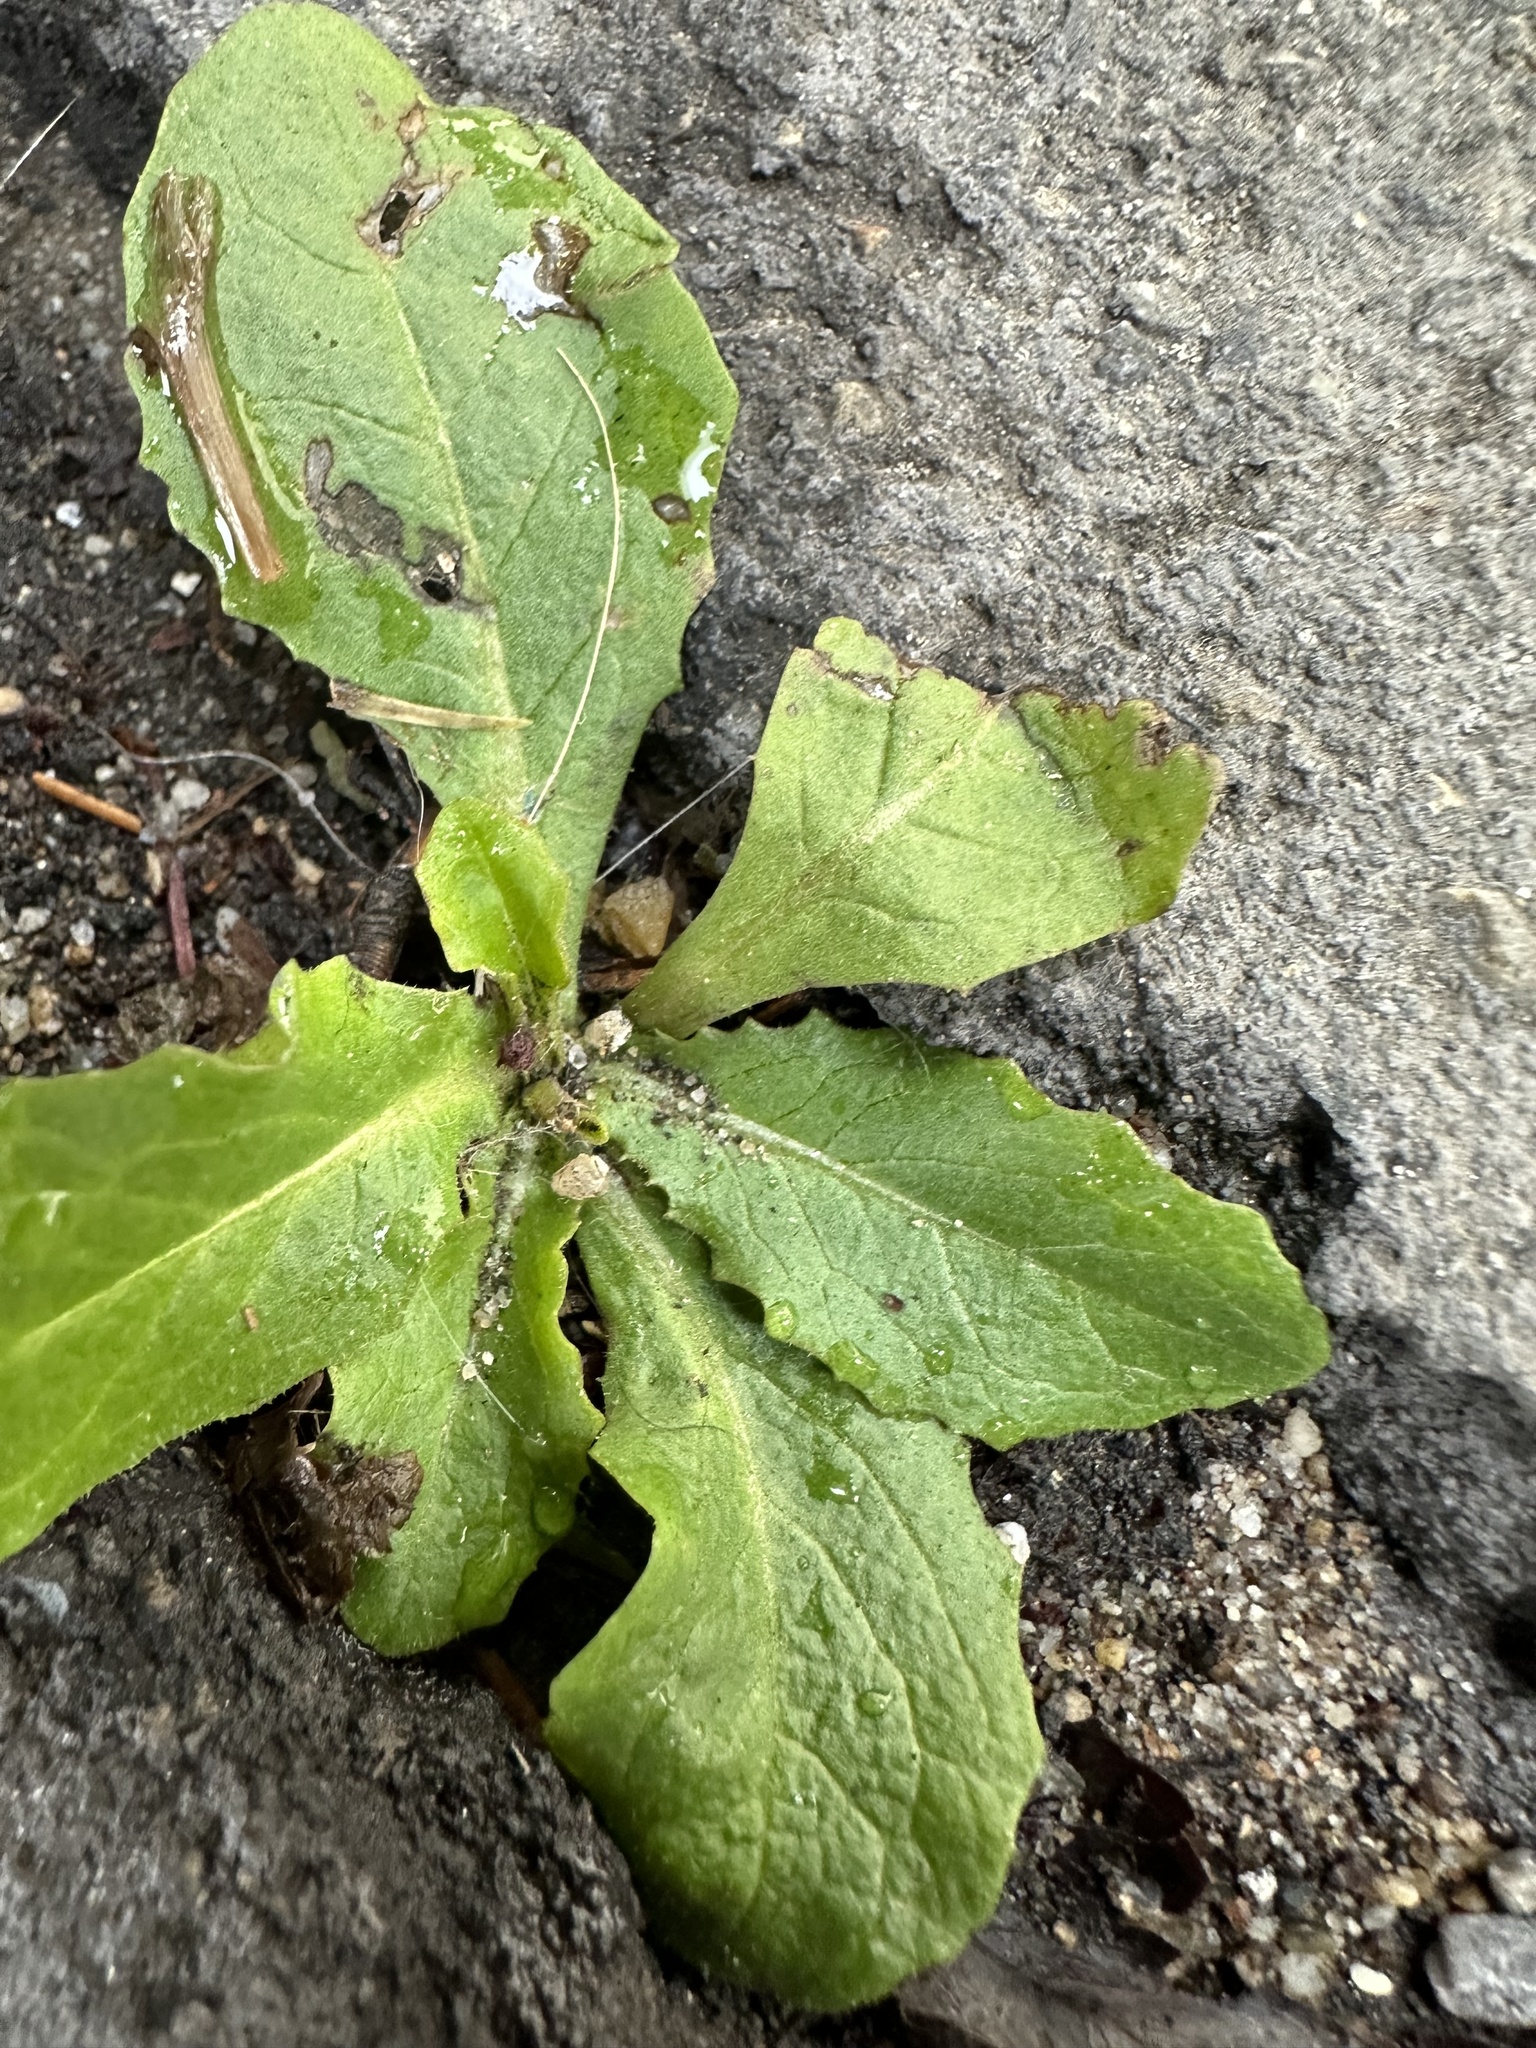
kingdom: Plantae
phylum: Tracheophyta
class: Magnoliopsida
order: Asterales
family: Asteraceae
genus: Hypochaeris
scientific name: Hypochaeris glabra
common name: Smooth catsear
